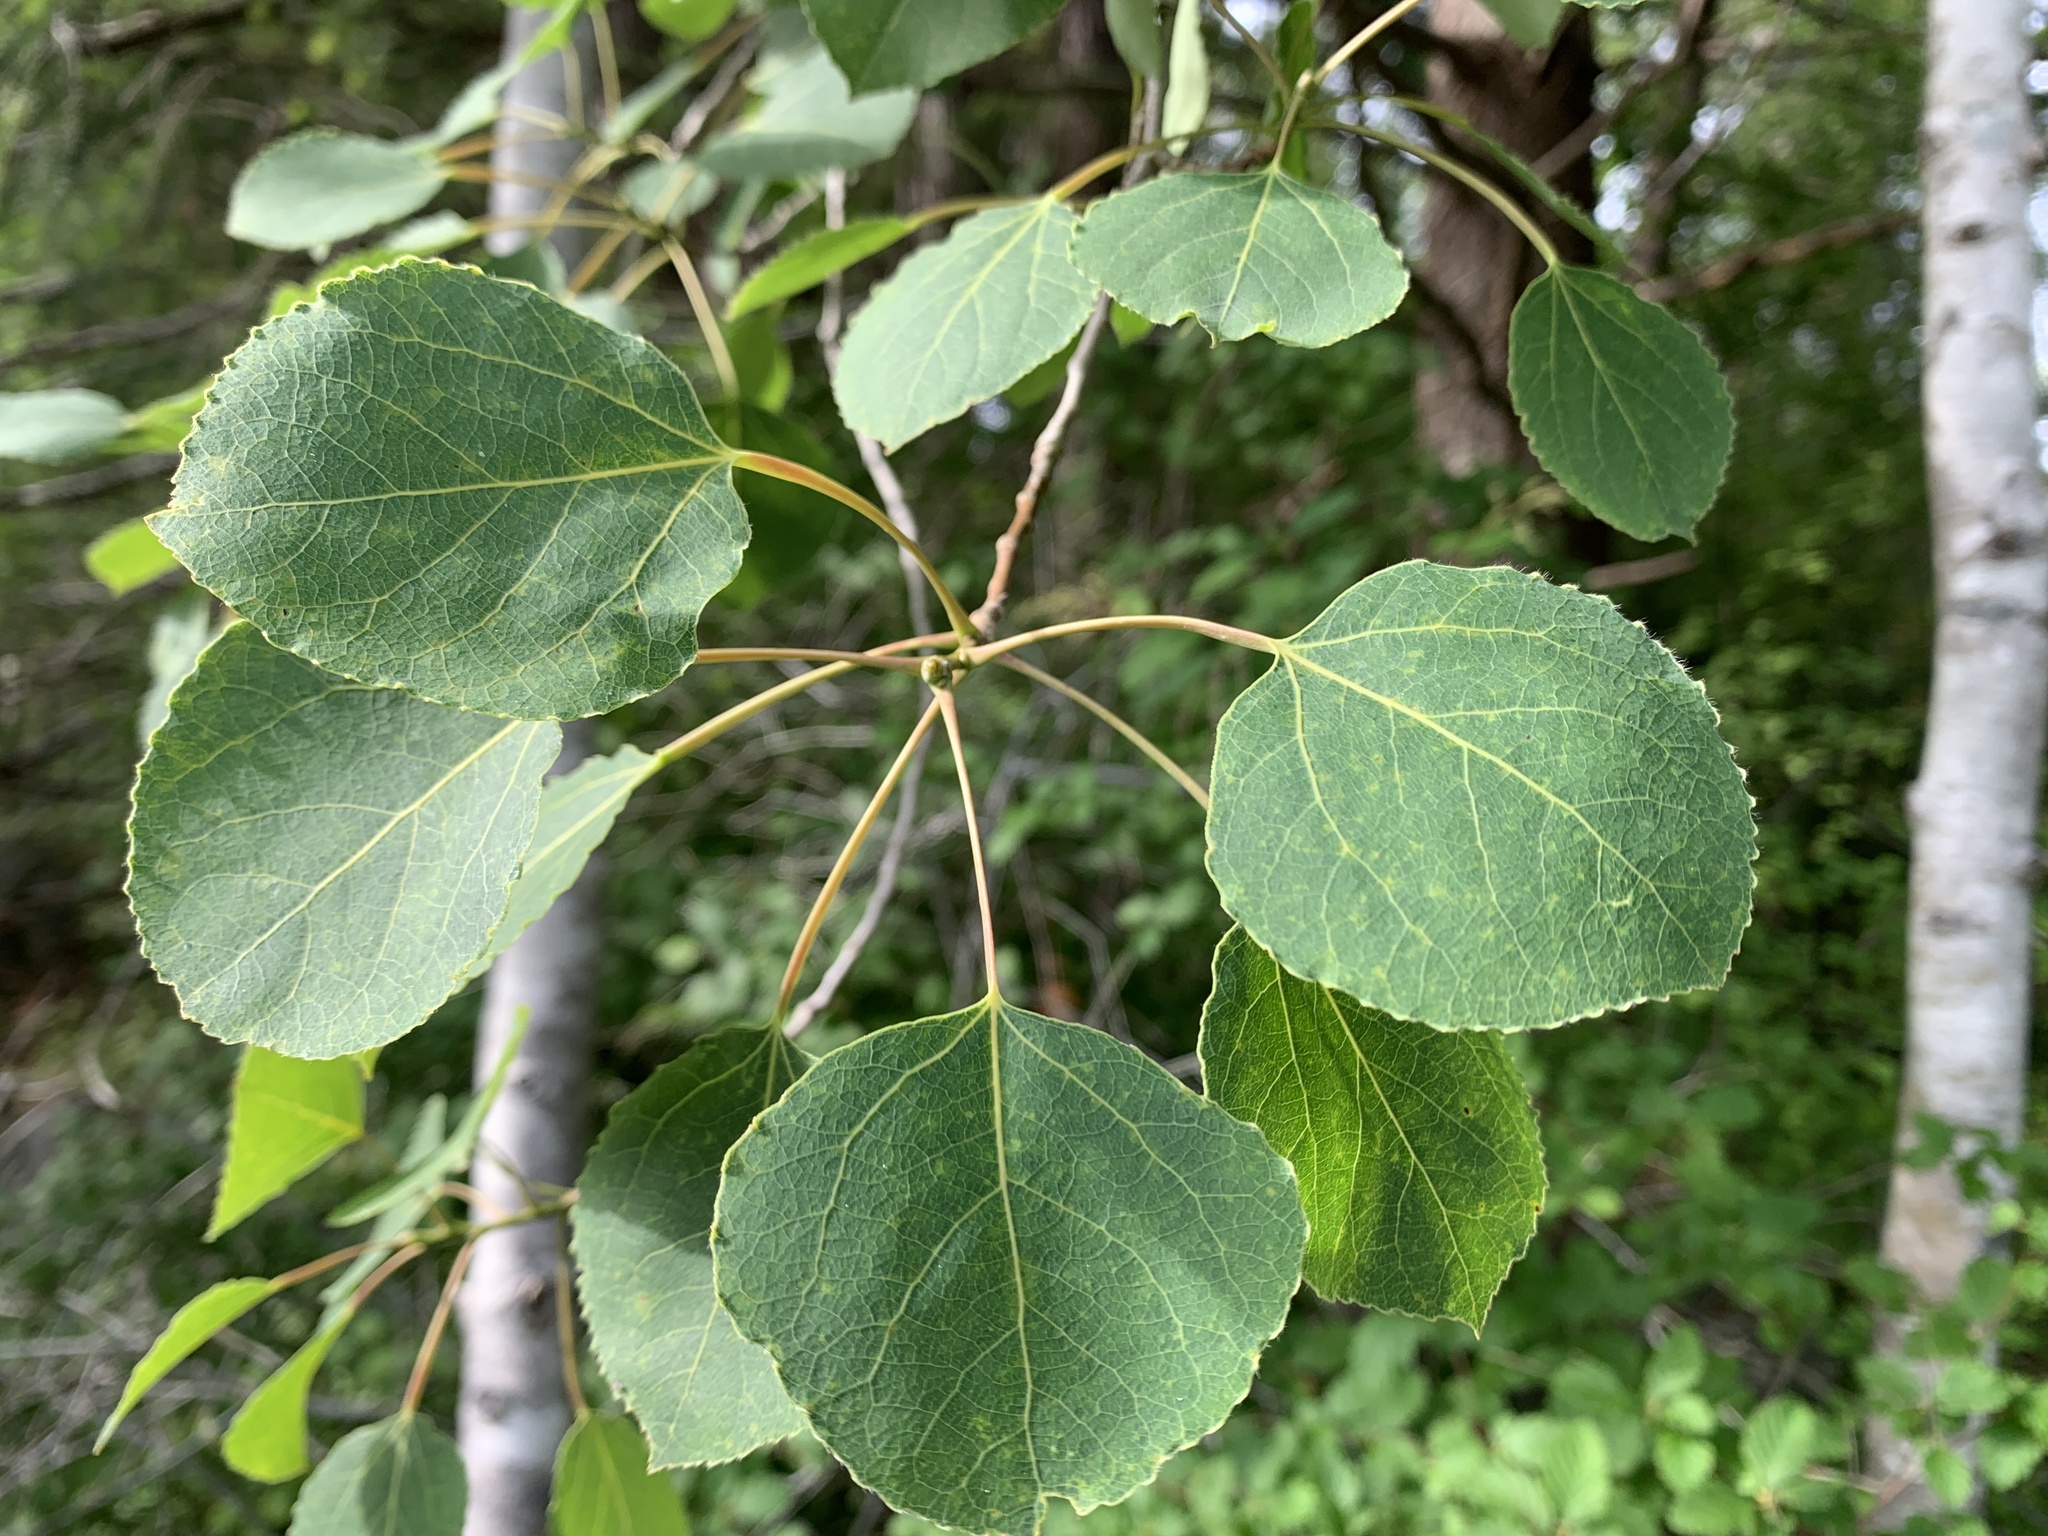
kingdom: Plantae
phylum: Tracheophyta
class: Magnoliopsida
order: Malpighiales
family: Salicaceae
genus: Populus
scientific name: Populus tremuloides
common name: Quaking aspen
